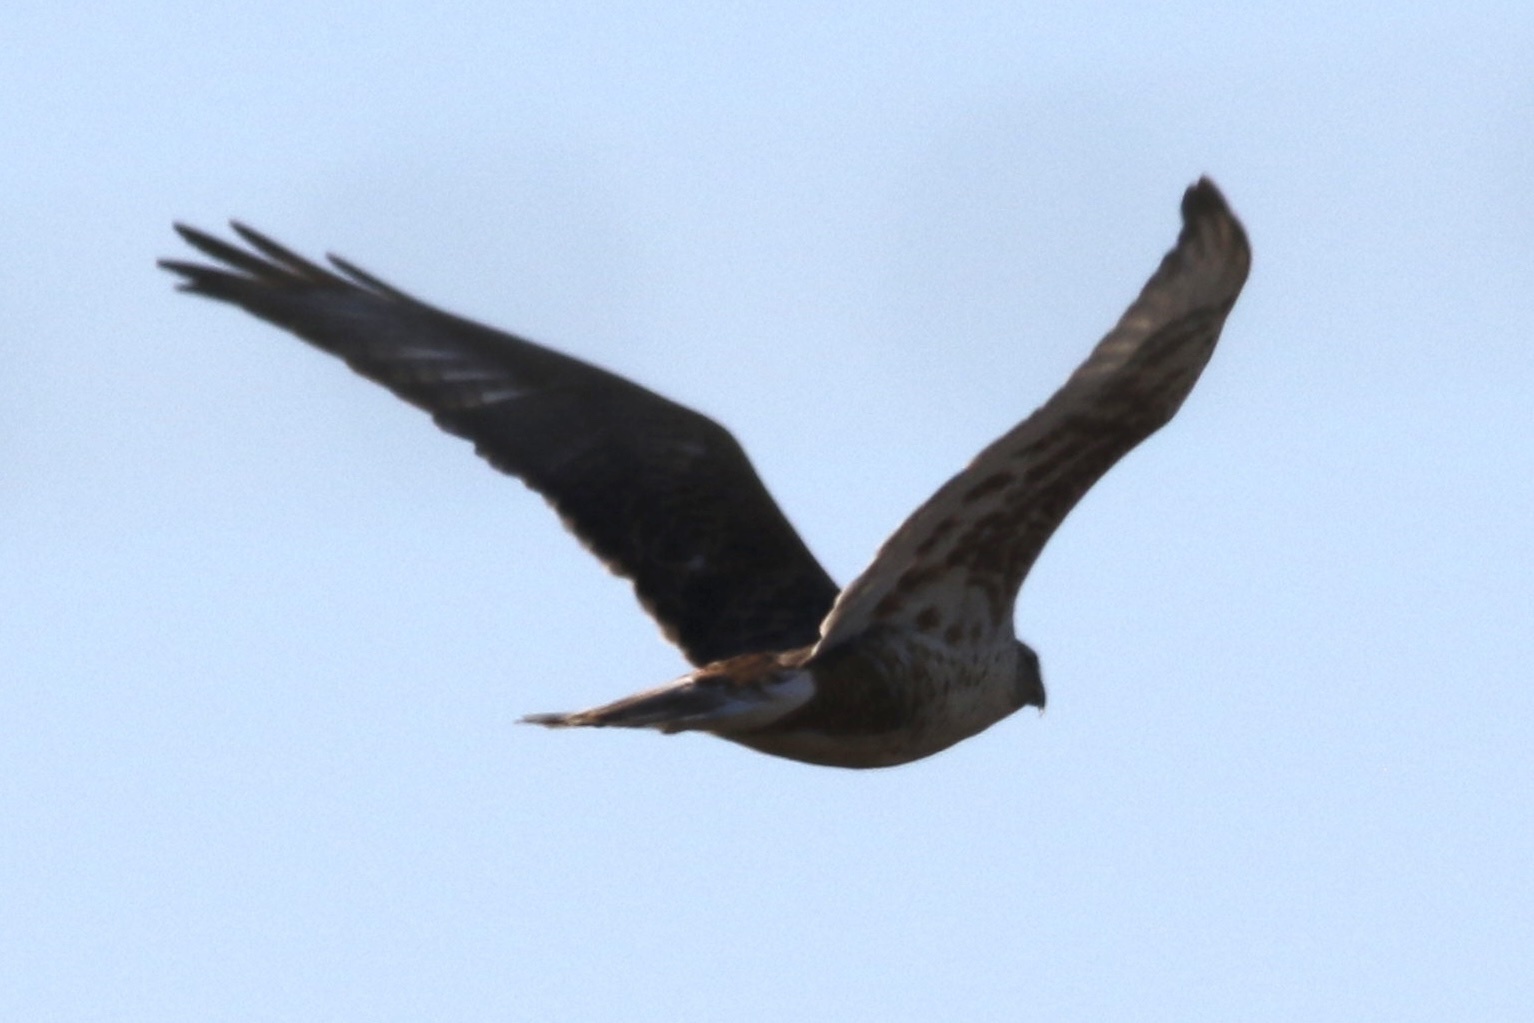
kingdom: Animalia
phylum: Chordata
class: Aves
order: Accipitriformes
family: Accipitridae
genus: Buteo
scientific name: Buteo regalis
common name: Ferruginous hawk
